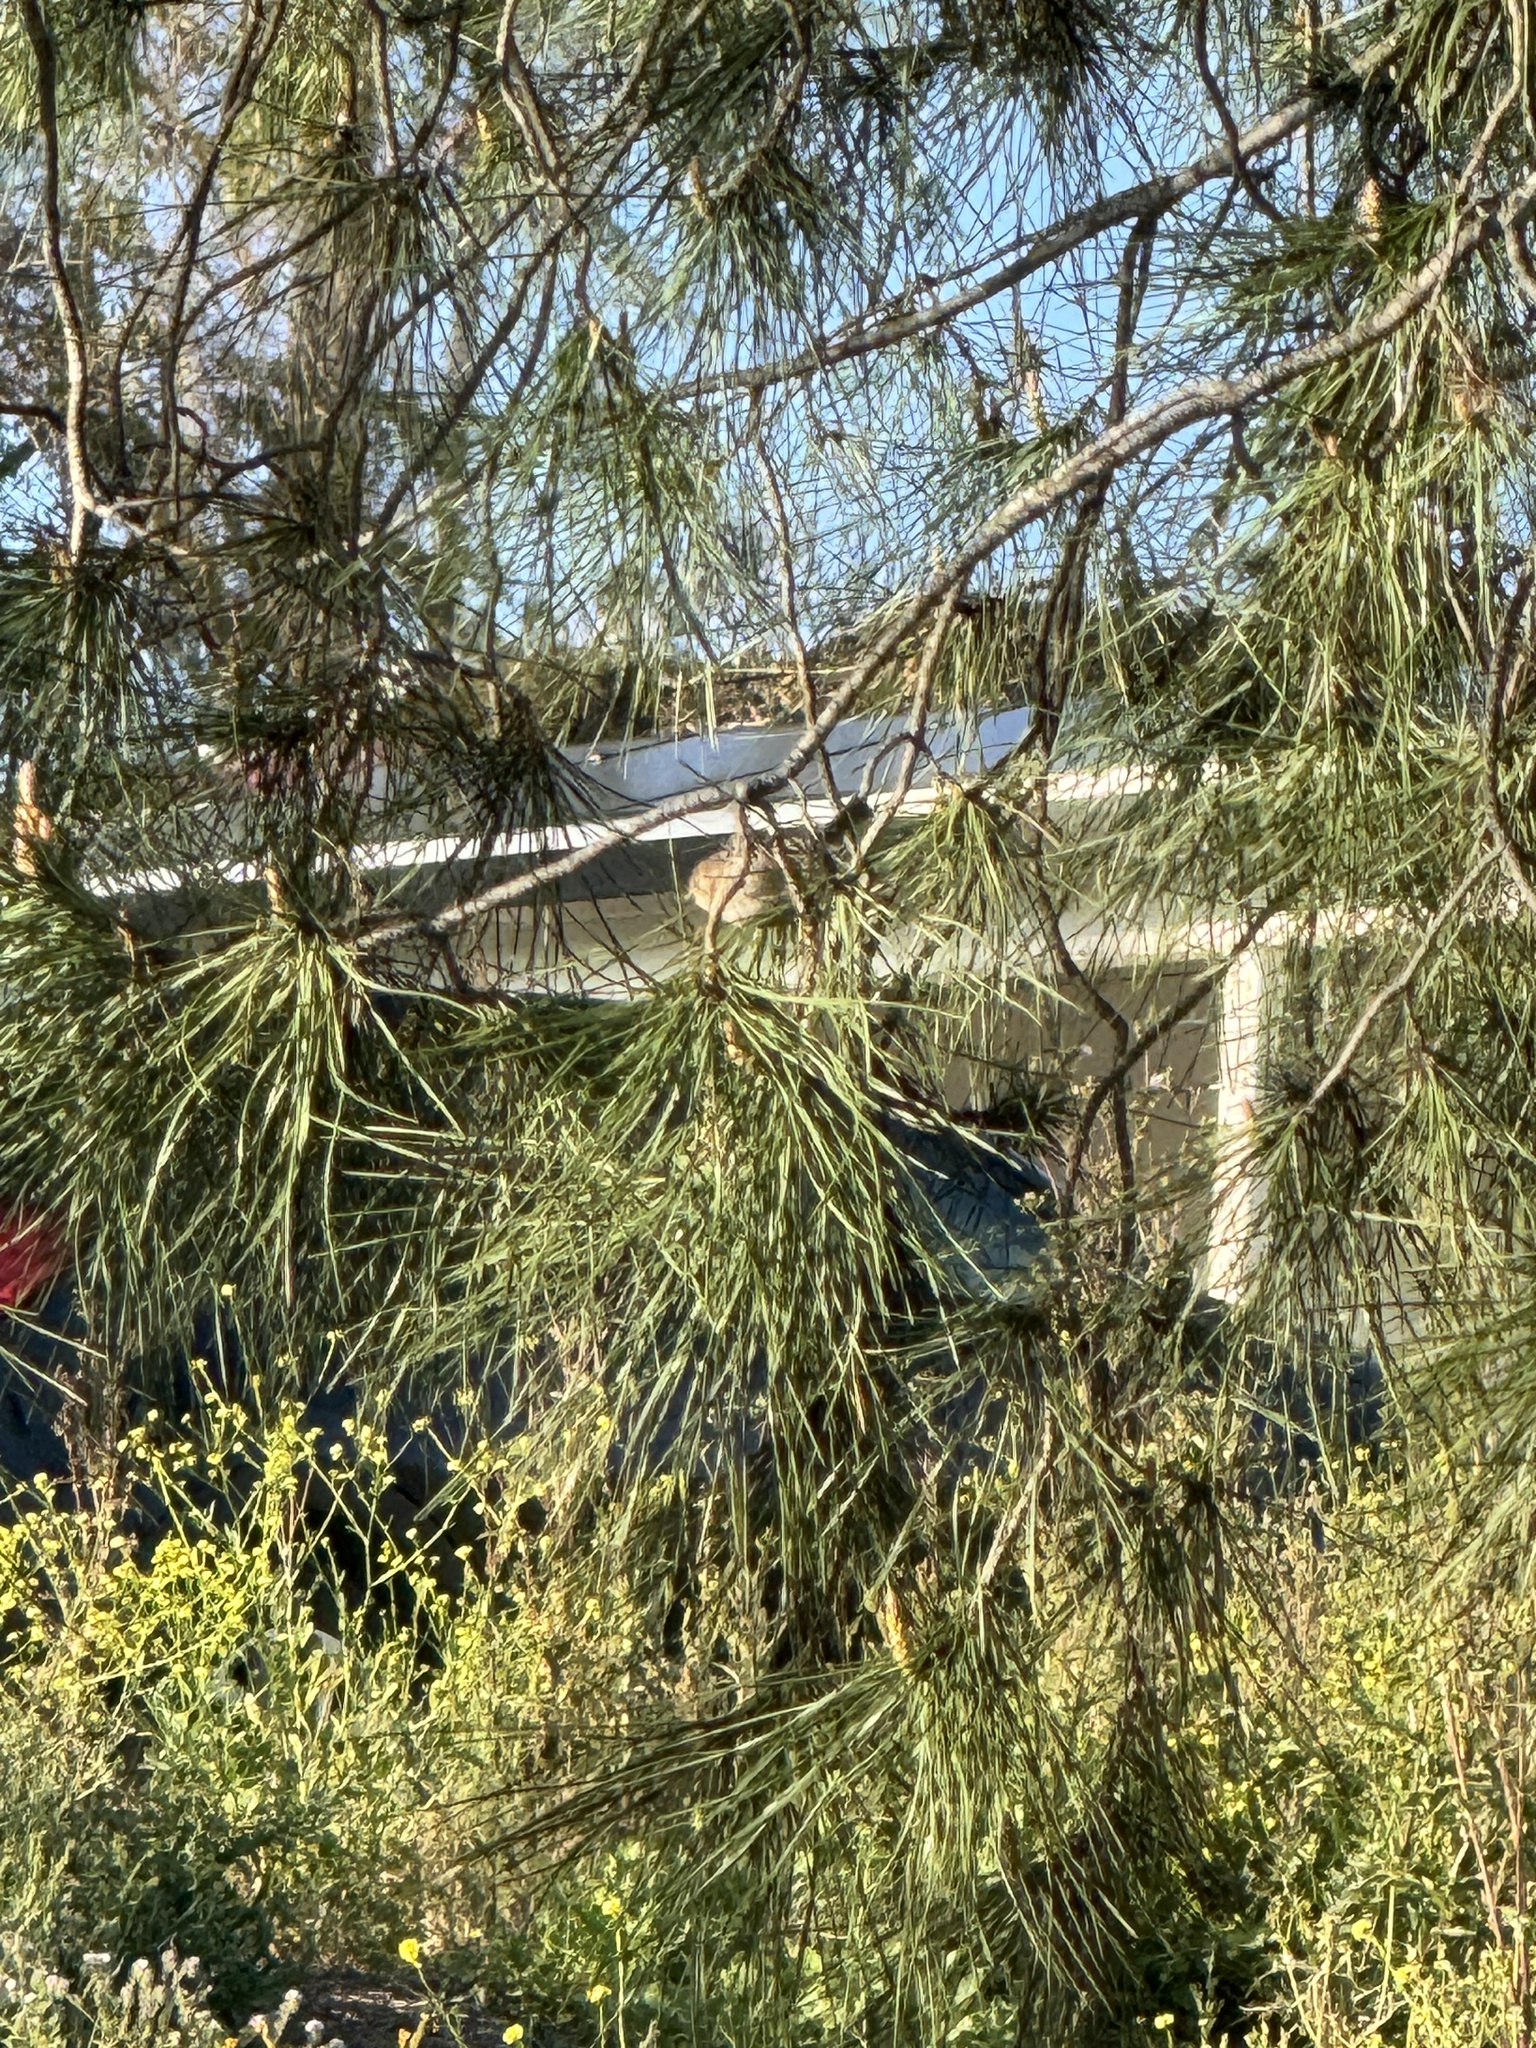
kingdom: Animalia
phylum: Chordata
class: Aves
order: Passeriformes
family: Aegithalidae
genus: Psaltriparus
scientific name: Psaltriparus minimus
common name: American bushtit
